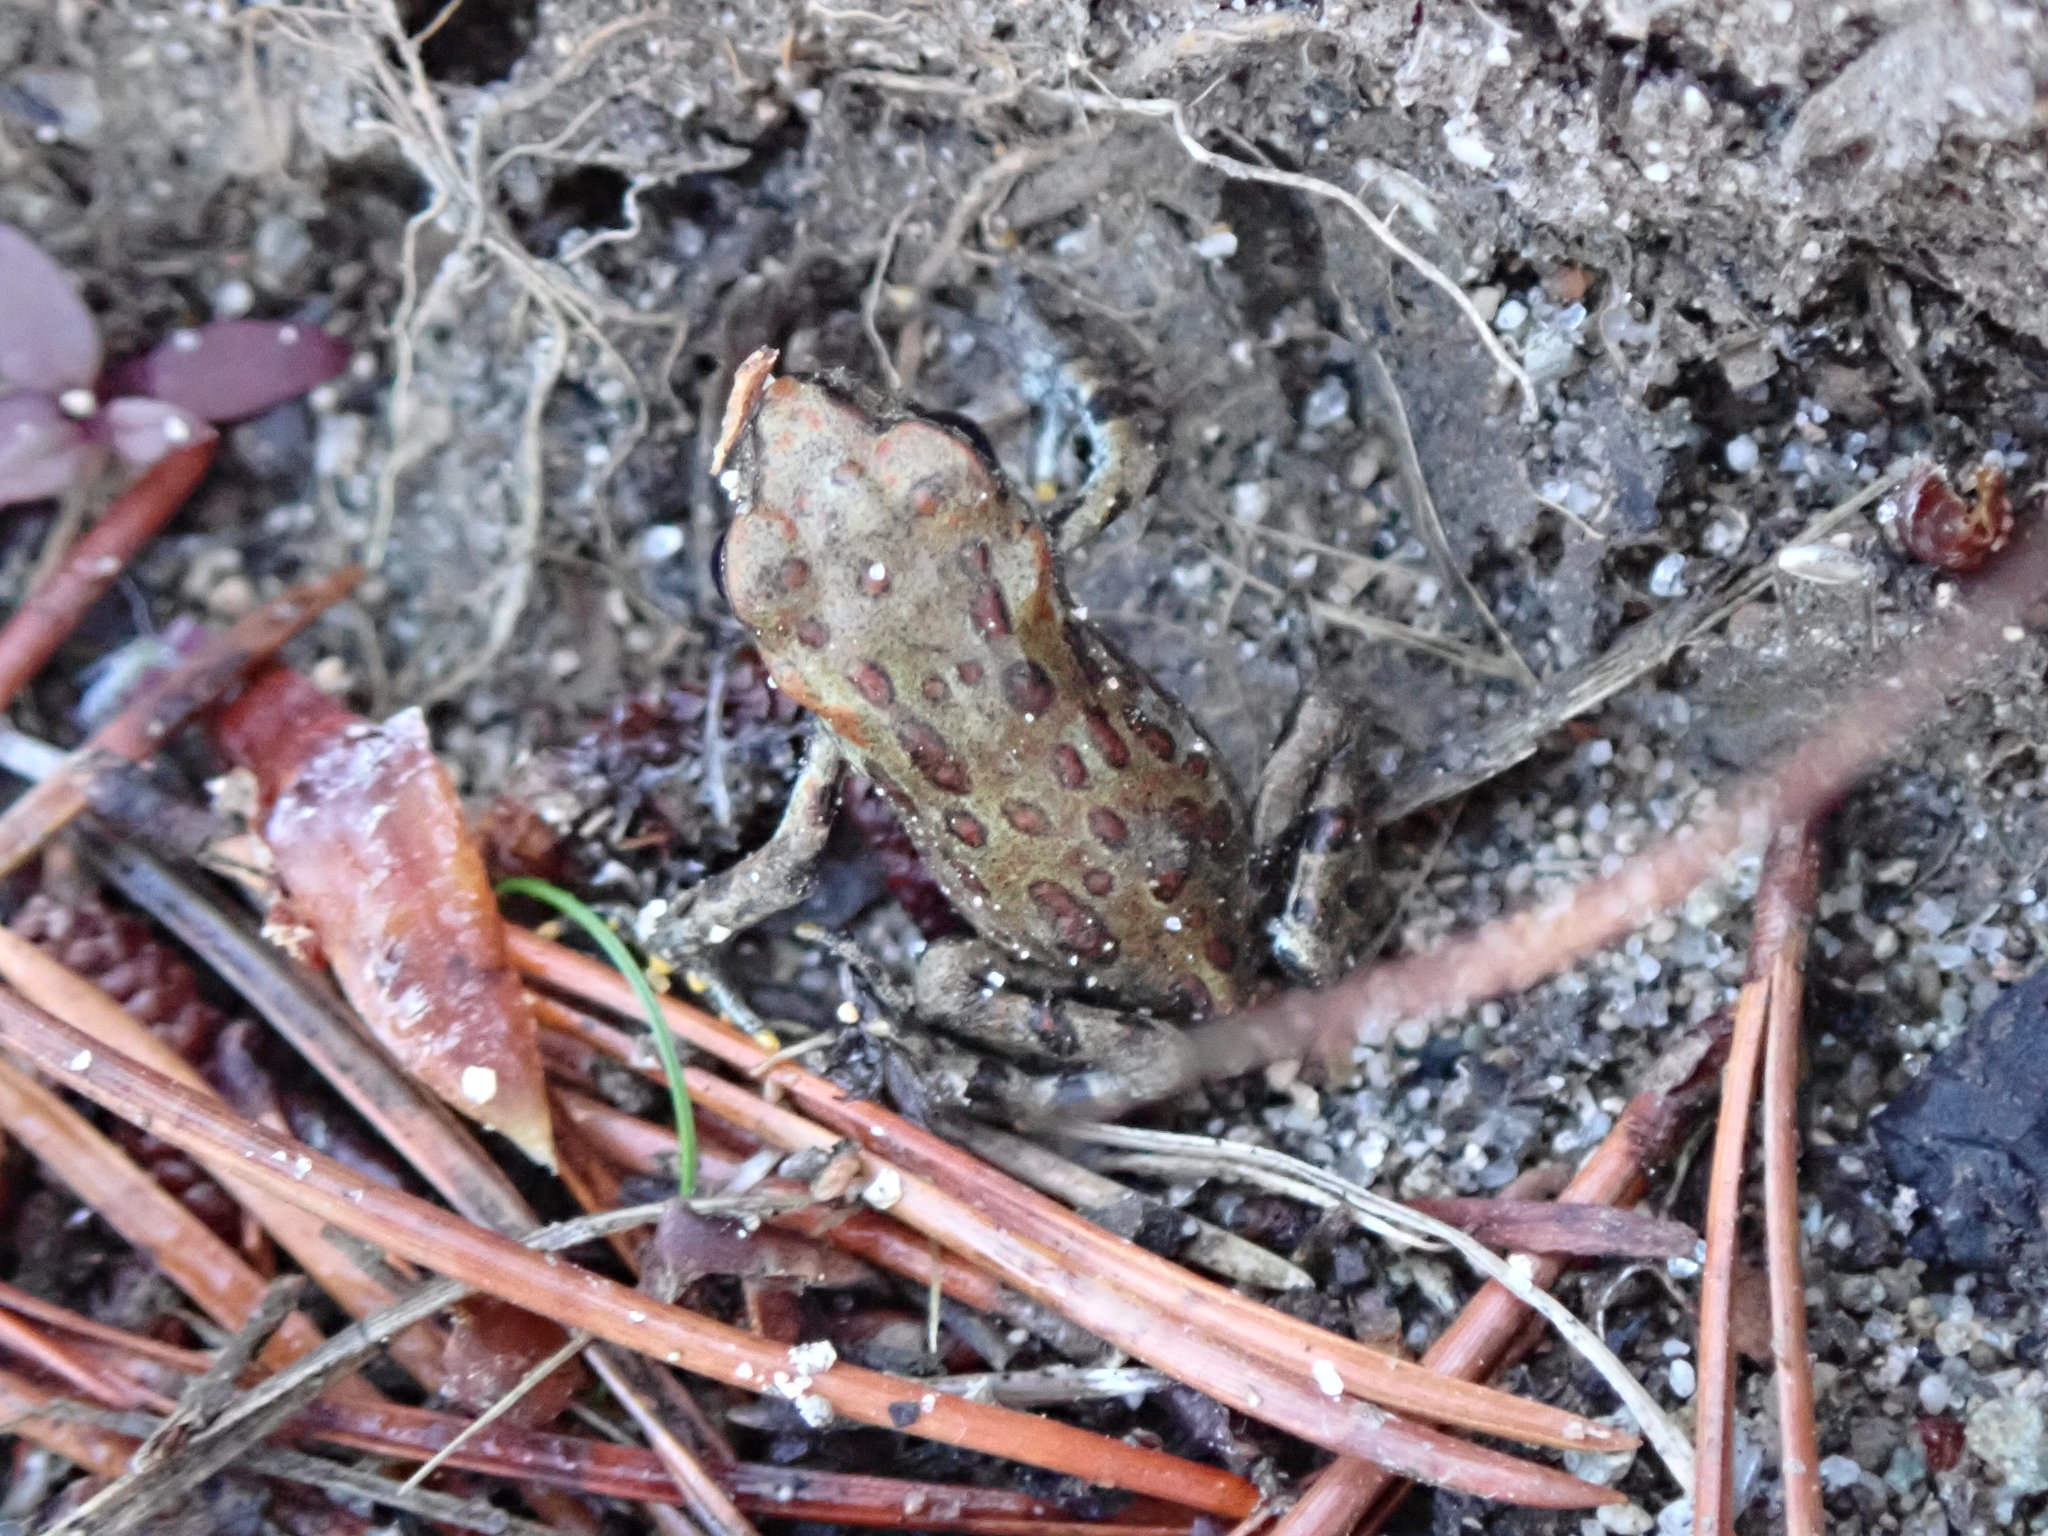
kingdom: Animalia
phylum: Chordata
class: Amphibia
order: Anura
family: Bufonidae
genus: Anaxyrus
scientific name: Anaxyrus boreas
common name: Western toad
